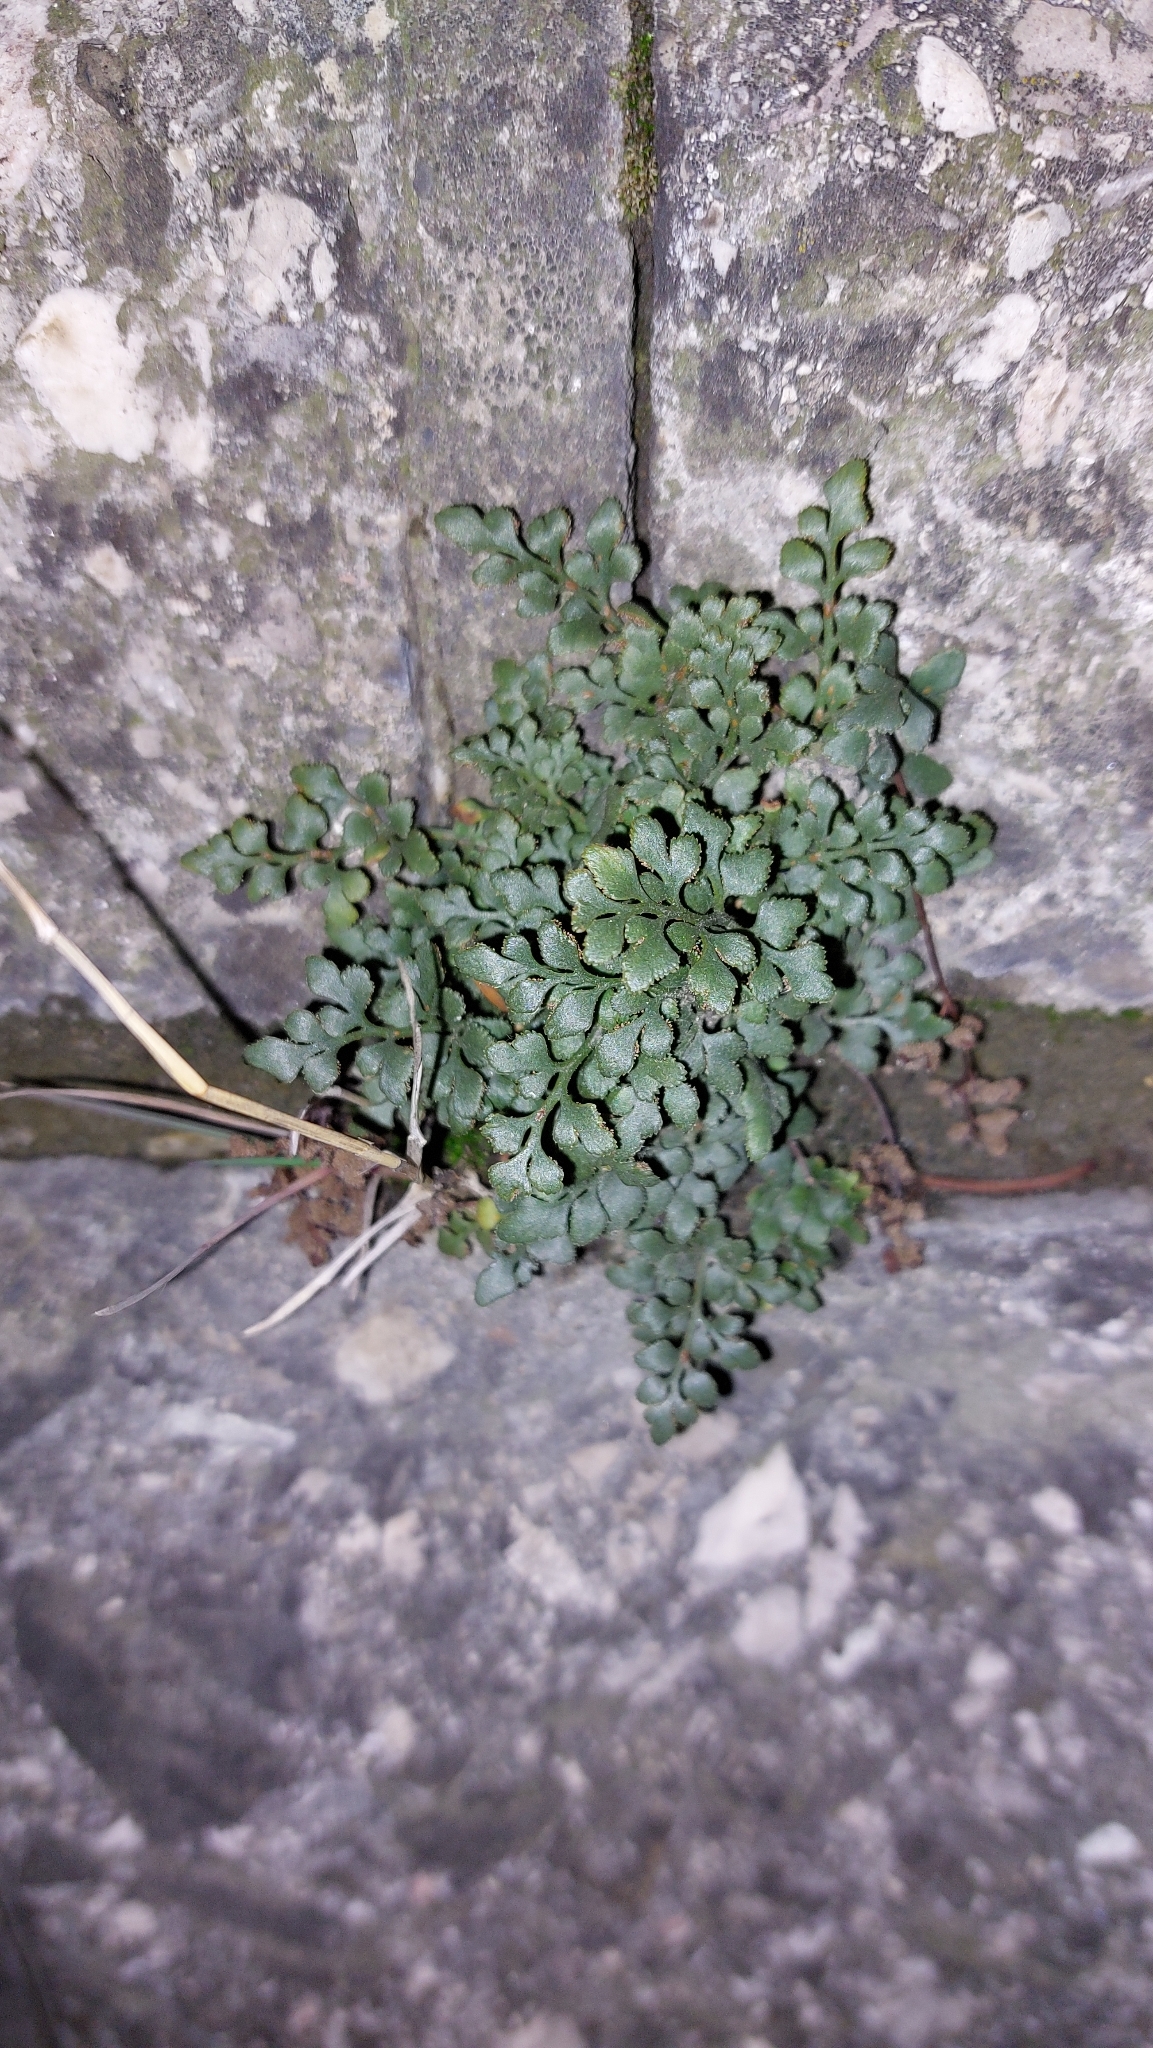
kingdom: Plantae
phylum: Tracheophyta
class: Polypodiopsida
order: Polypodiales
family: Aspleniaceae
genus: Asplenium
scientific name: Asplenium ruta-muraria
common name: Wall-rue
